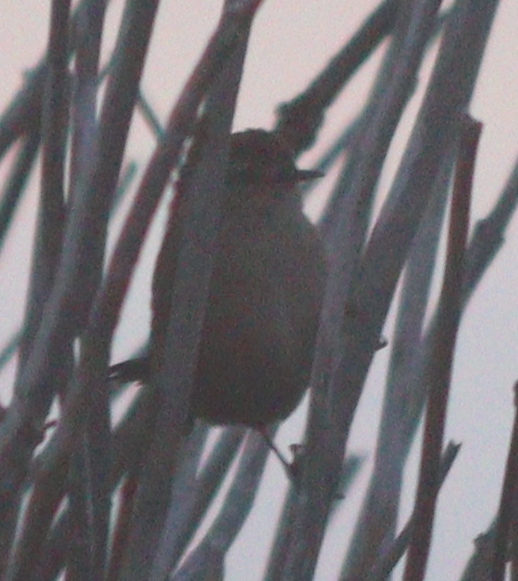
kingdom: Animalia
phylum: Chordata
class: Aves
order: Passeriformes
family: Troglodytidae
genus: Troglodytes
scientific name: Troglodytes troglodytes
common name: Eurasian wren
